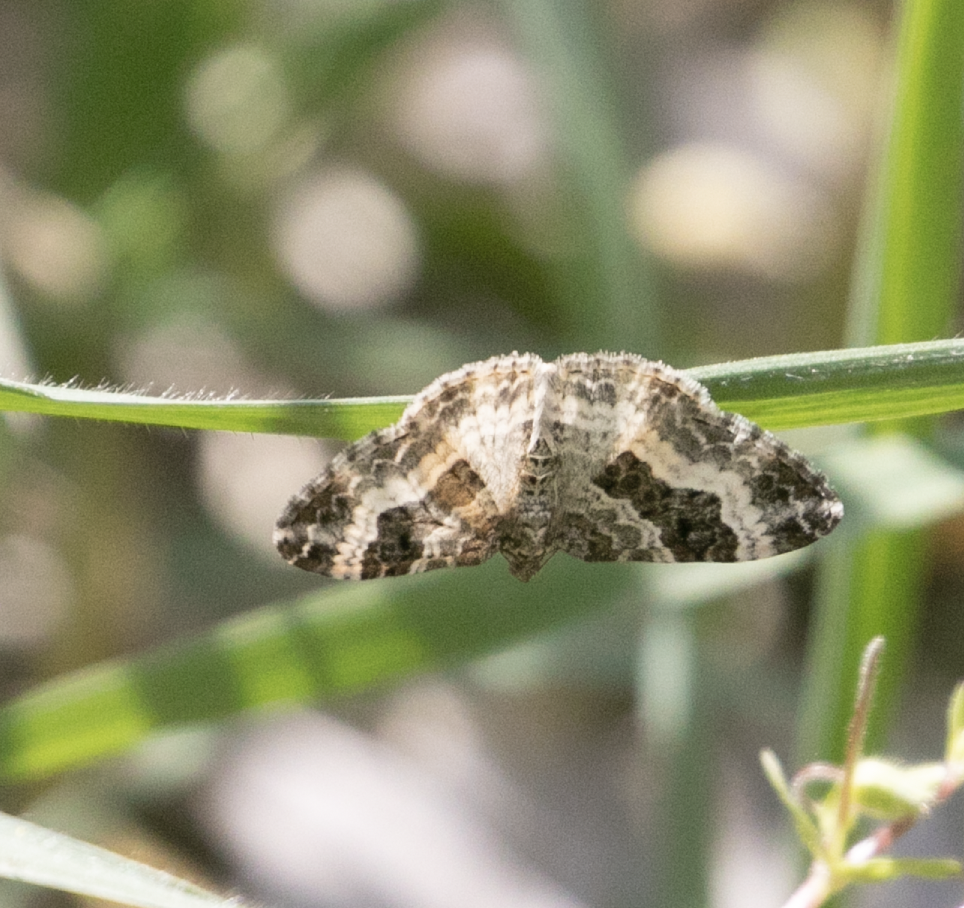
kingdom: Animalia
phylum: Arthropoda
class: Insecta
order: Lepidoptera
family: Geometridae
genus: Epirrhoe
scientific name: Epirrhoe alternata
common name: Common carpet
